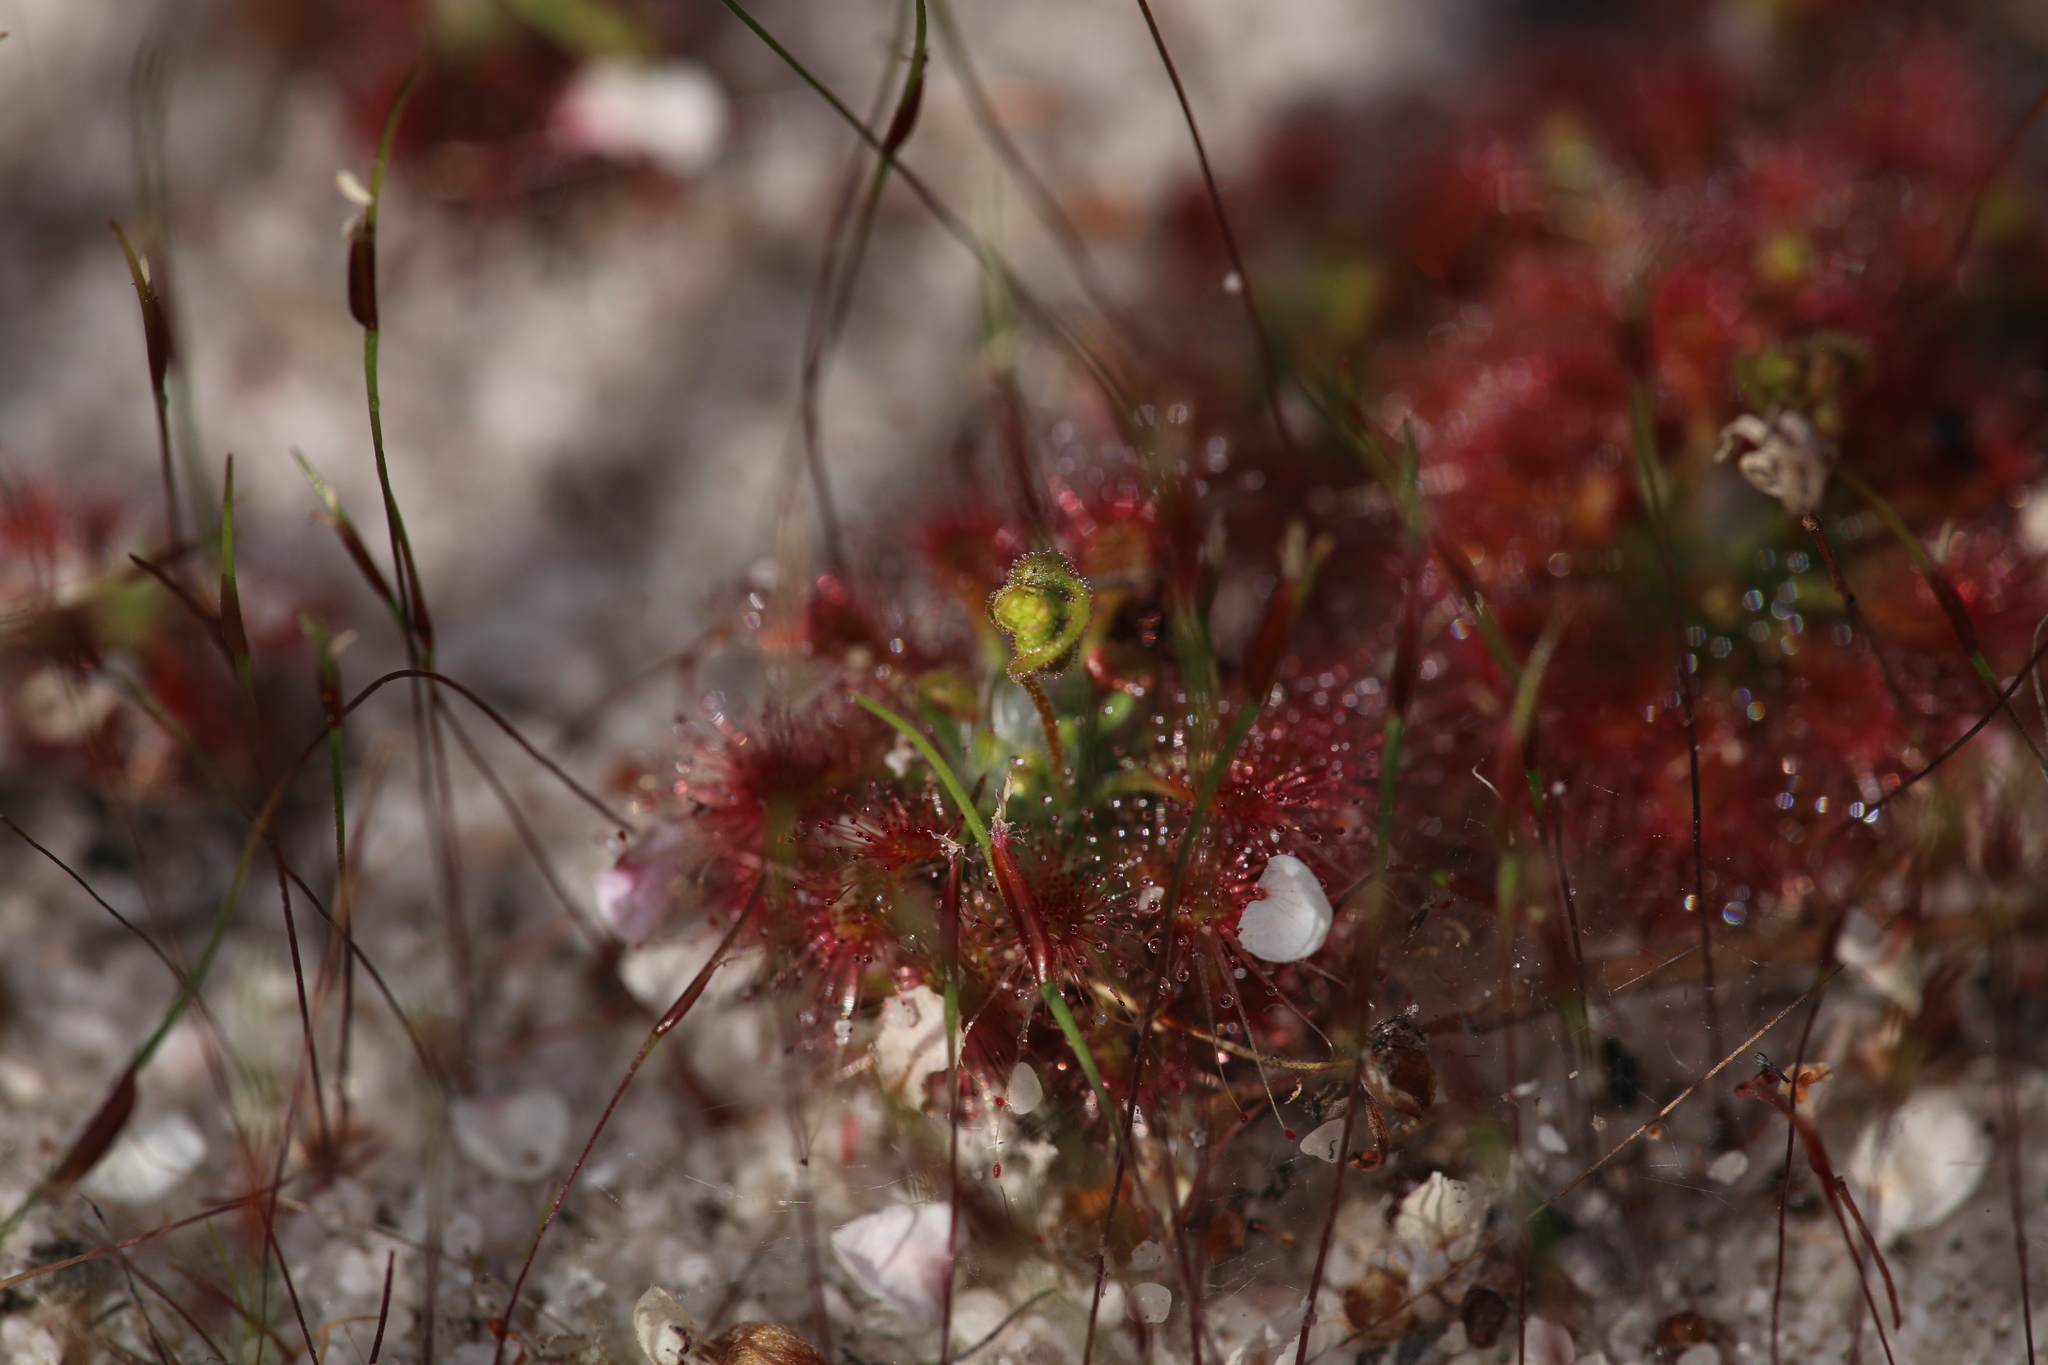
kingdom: Plantae
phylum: Tracheophyta
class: Magnoliopsida
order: Caryophyllales
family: Droseraceae
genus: Drosera
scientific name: Drosera patens
